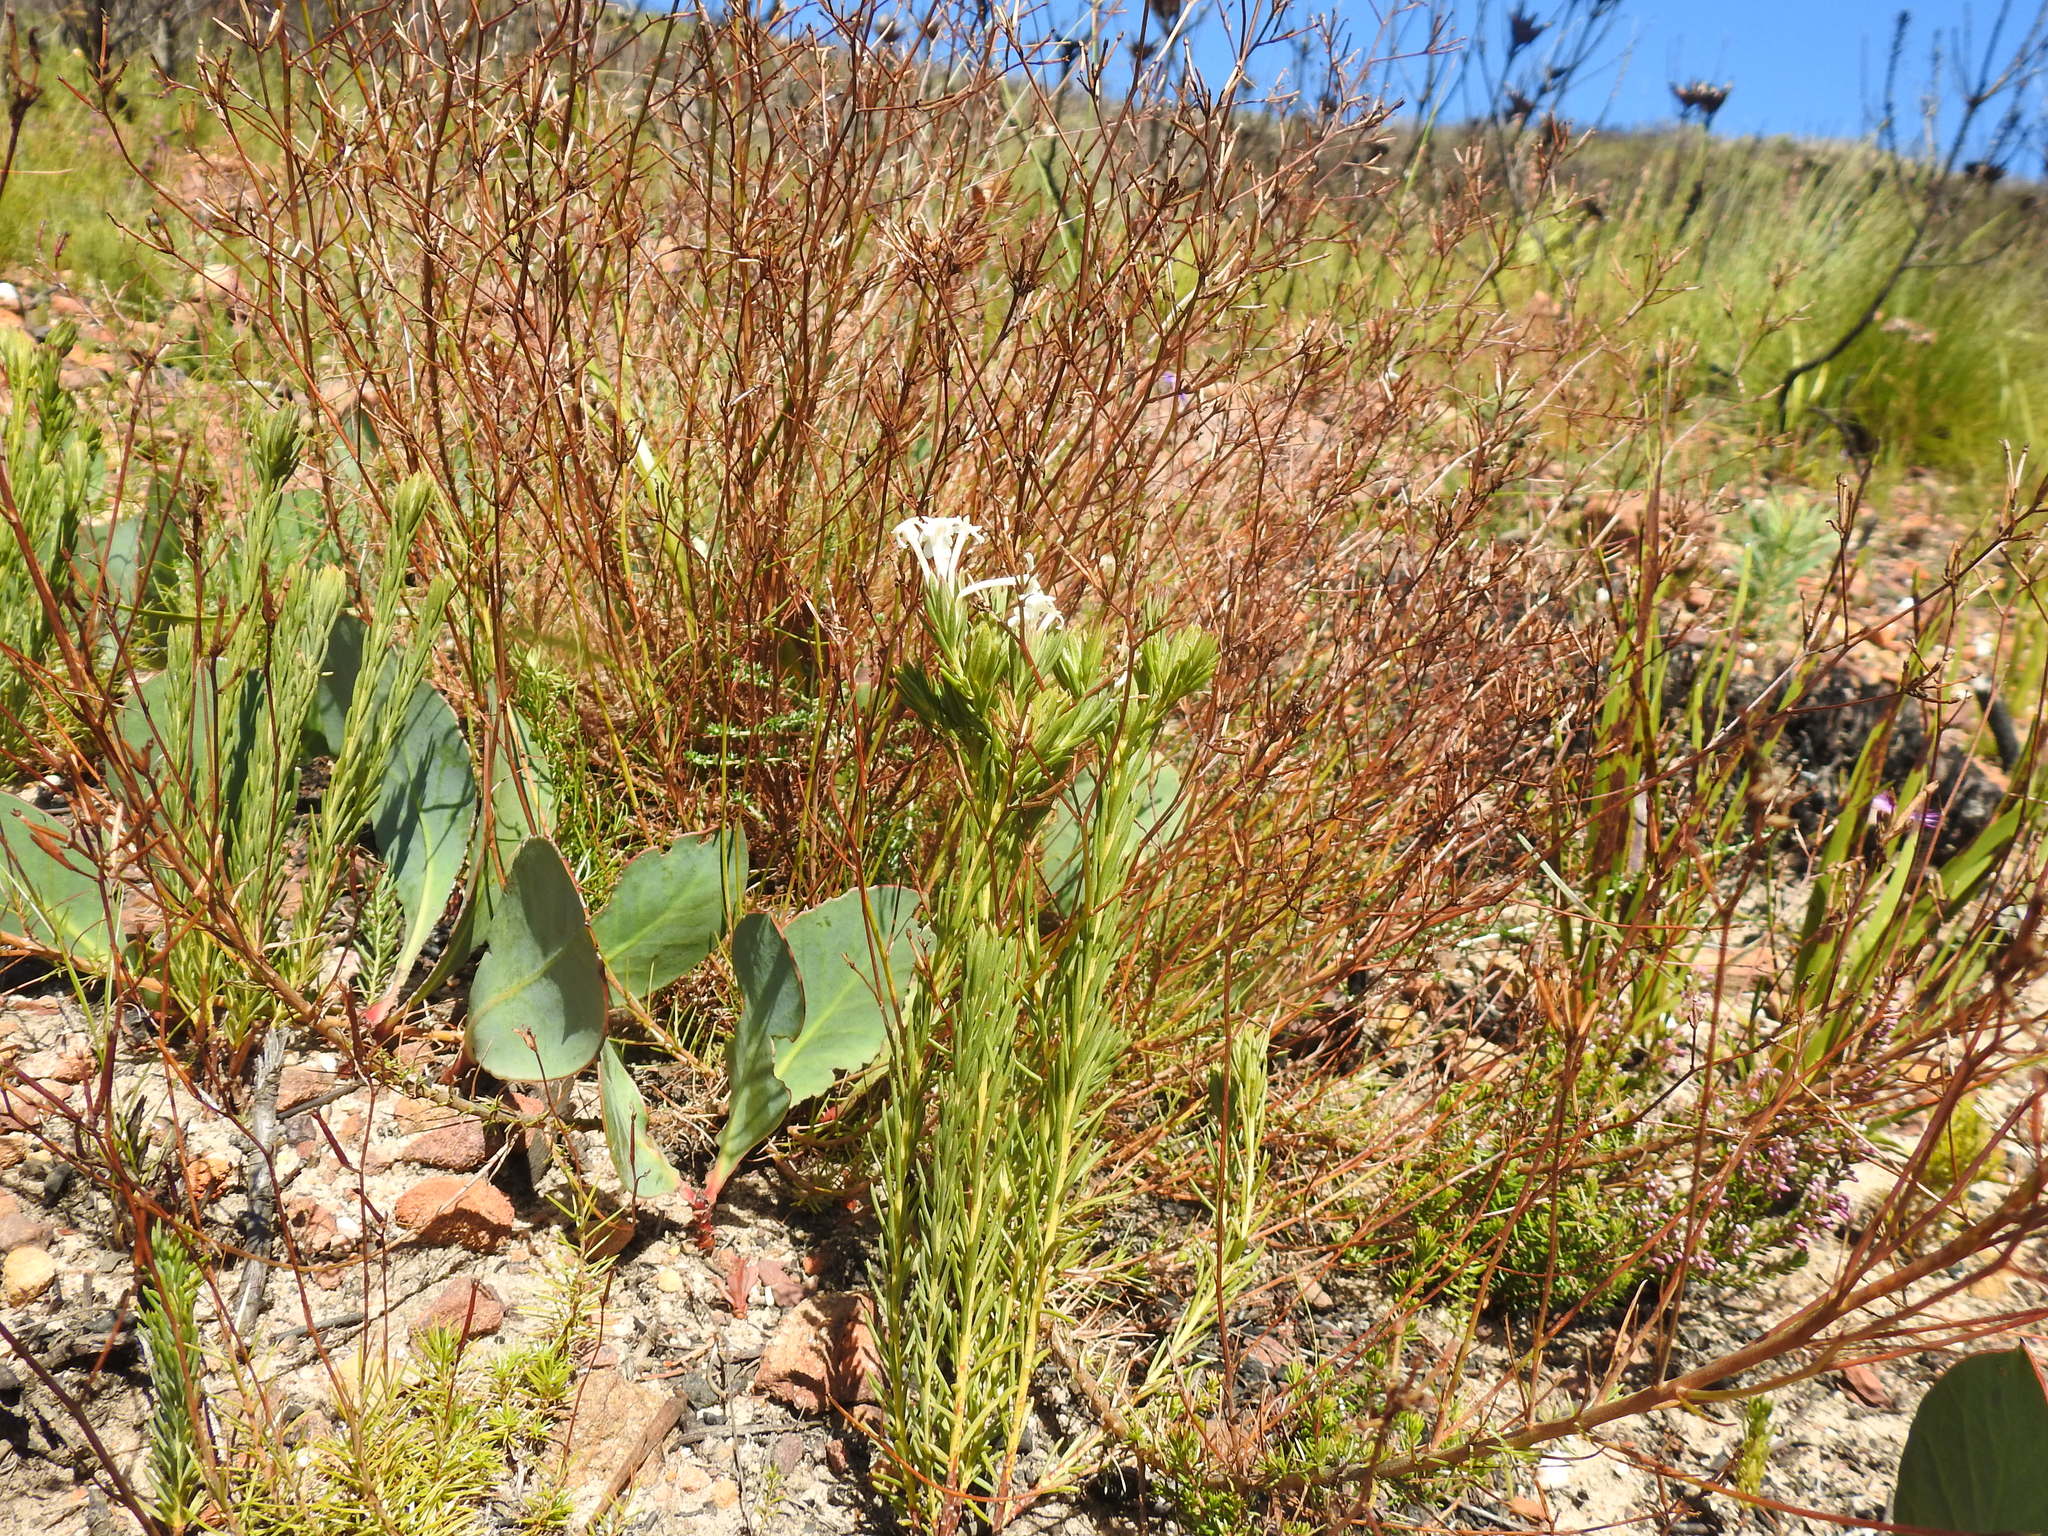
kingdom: Plantae
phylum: Tracheophyta
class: Magnoliopsida
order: Malvales
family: Thymelaeaceae
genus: Gnidia
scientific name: Gnidia pinifolia
